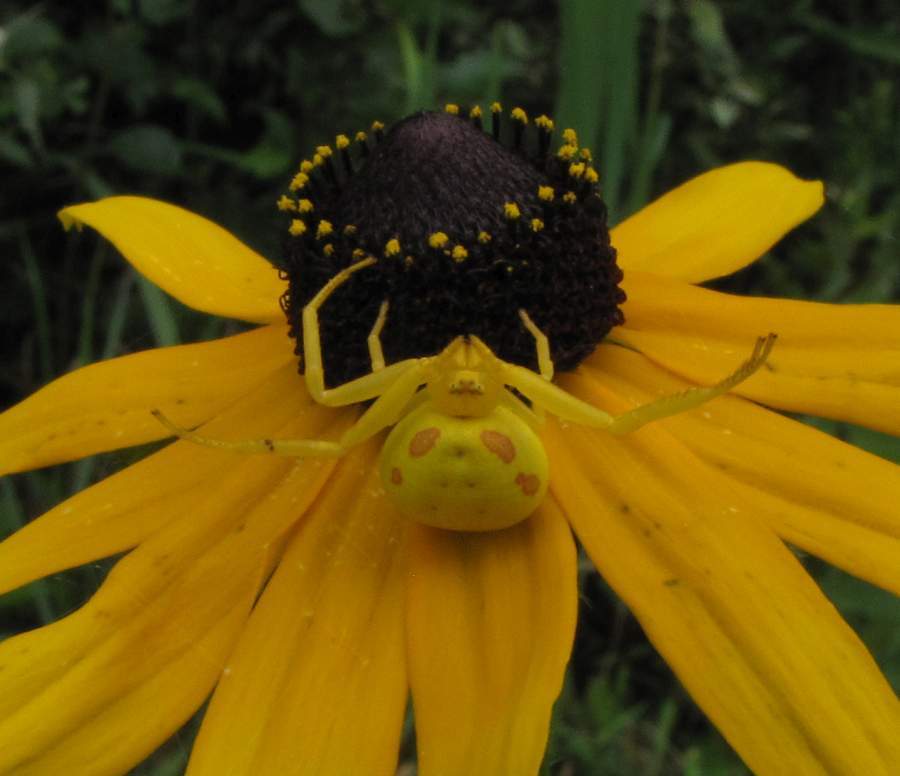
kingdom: Animalia
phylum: Arthropoda
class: Arachnida
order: Araneae
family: Thomisidae
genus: Misumena
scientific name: Misumena vatia
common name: Goldenrod crab spider
